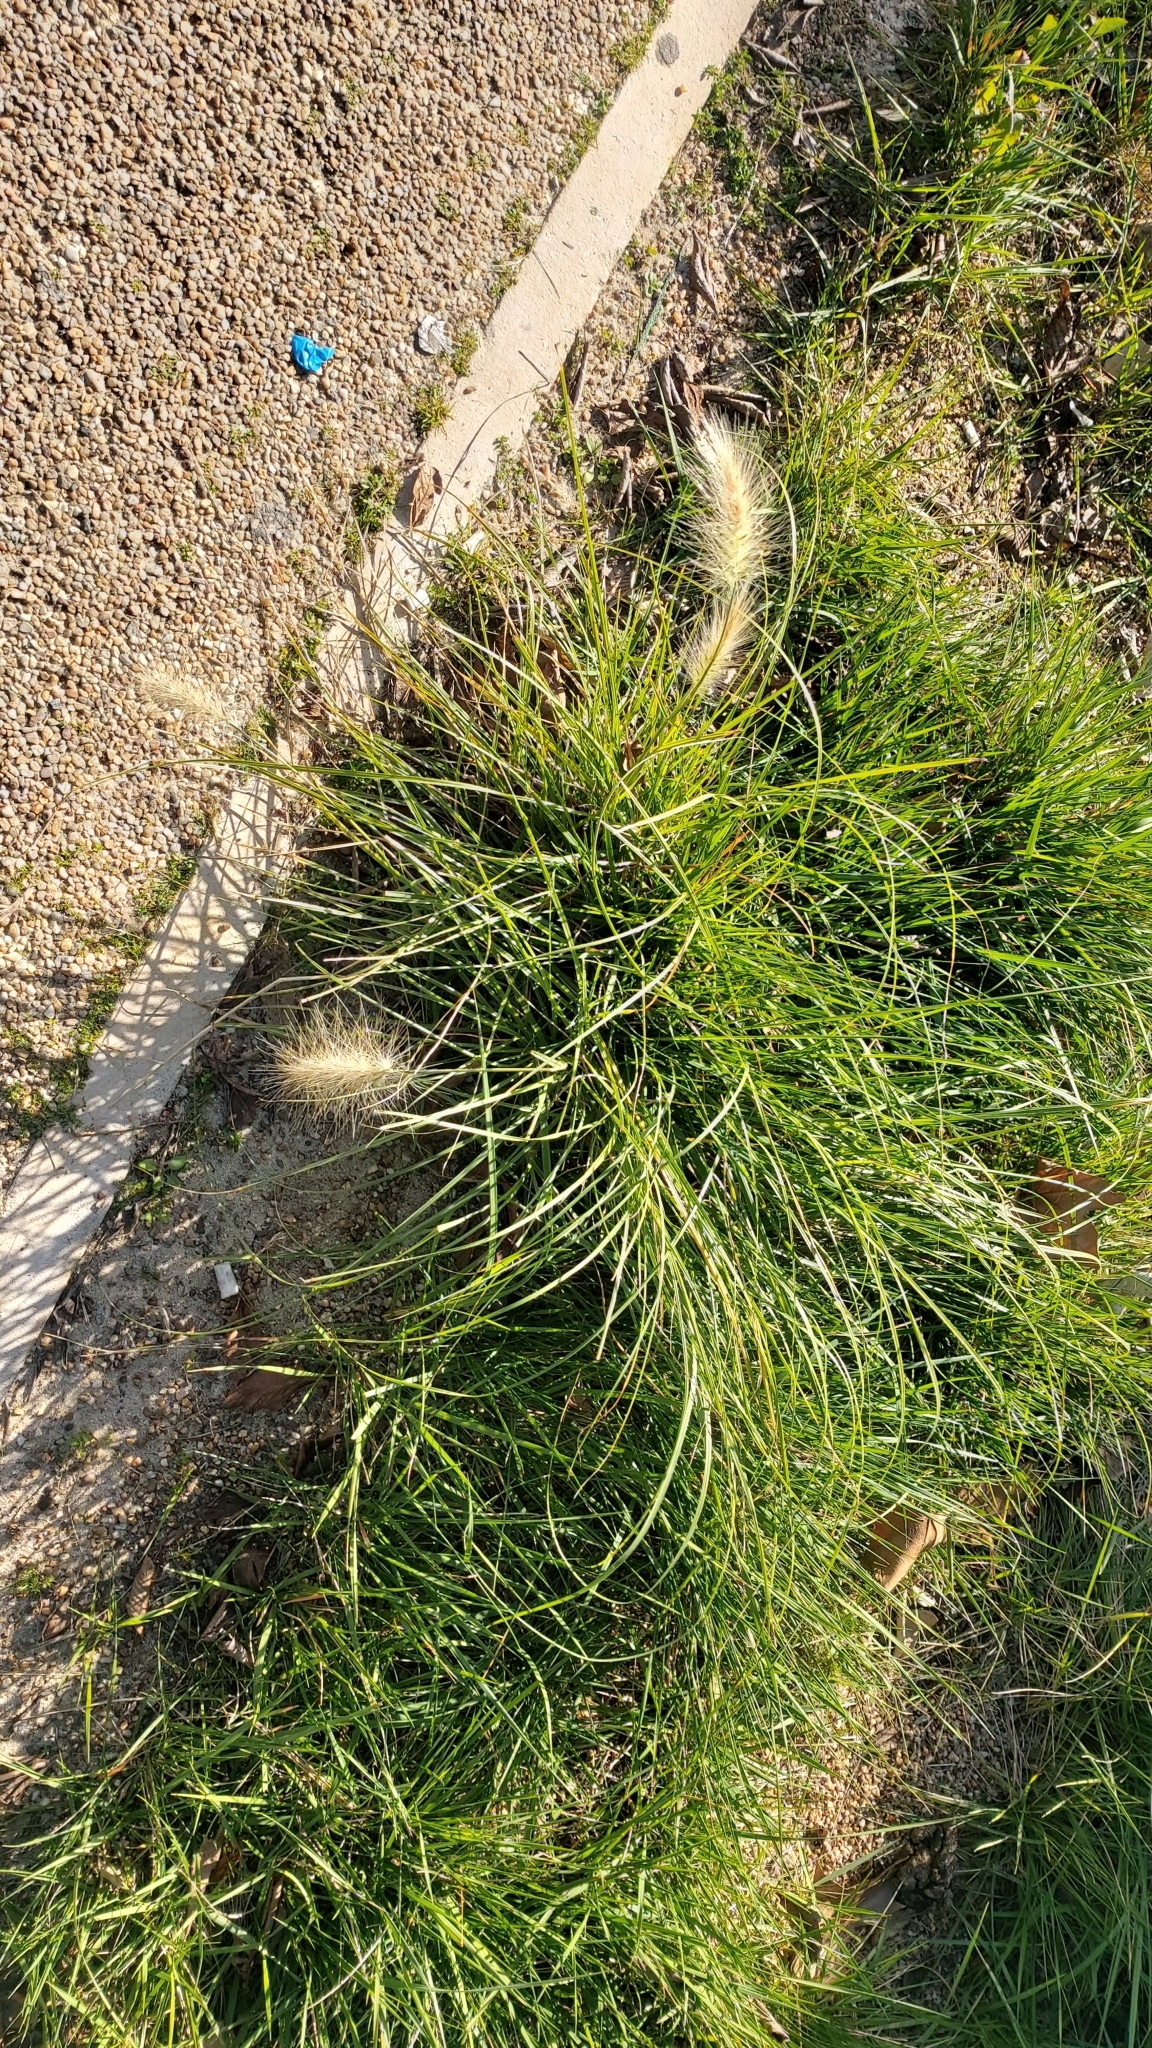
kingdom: Plantae
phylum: Tracheophyta
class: Liliopsida
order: Poales
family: Poaceae
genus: Cenchrus
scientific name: Cenchrus longisetus
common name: Feathertop
